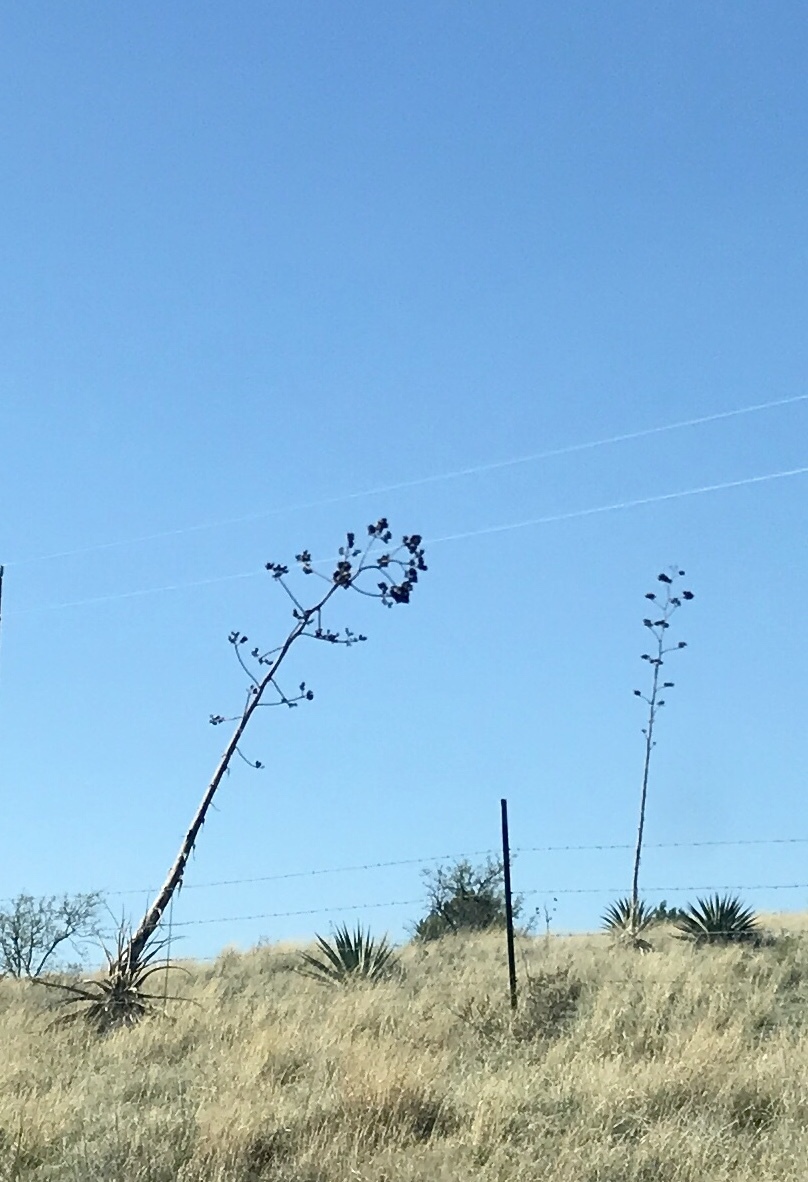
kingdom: Plantae
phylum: Tracheophyta
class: Liliopsida
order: Asparagales
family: Asparagaceae
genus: Agave
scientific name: Agave palmeri
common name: Palmer agave
